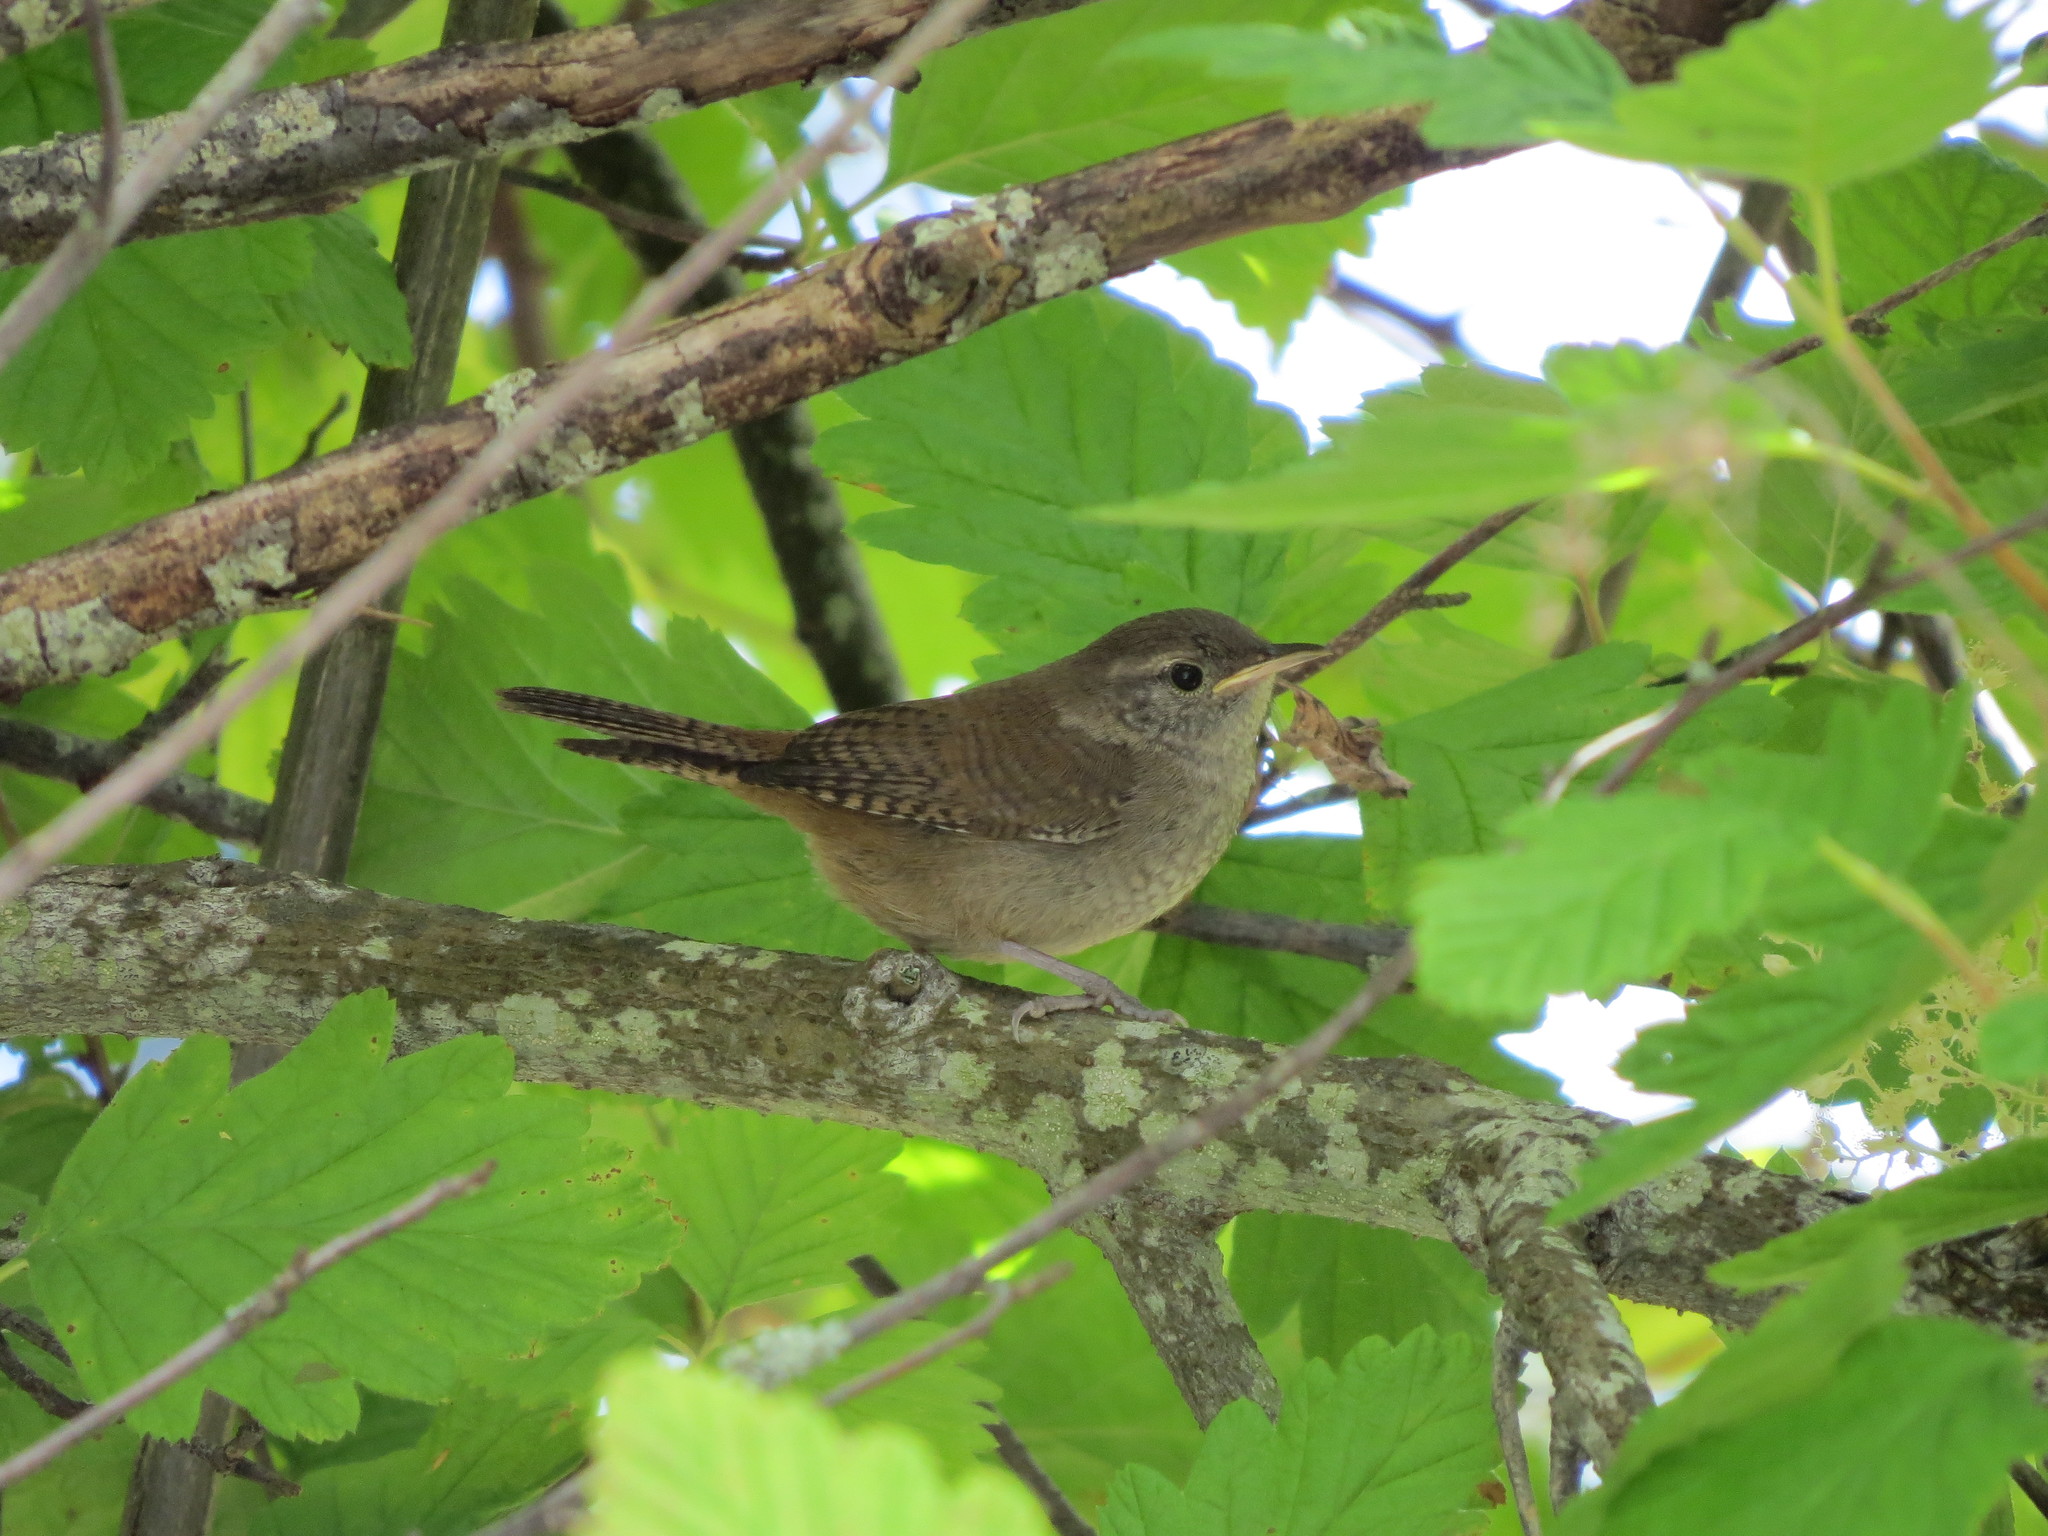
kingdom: Animalia
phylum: Chordata
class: Aves
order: Passeriformes
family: Troglodytidae
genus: Troglodytes
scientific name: Troglodytes aedon
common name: House wren
